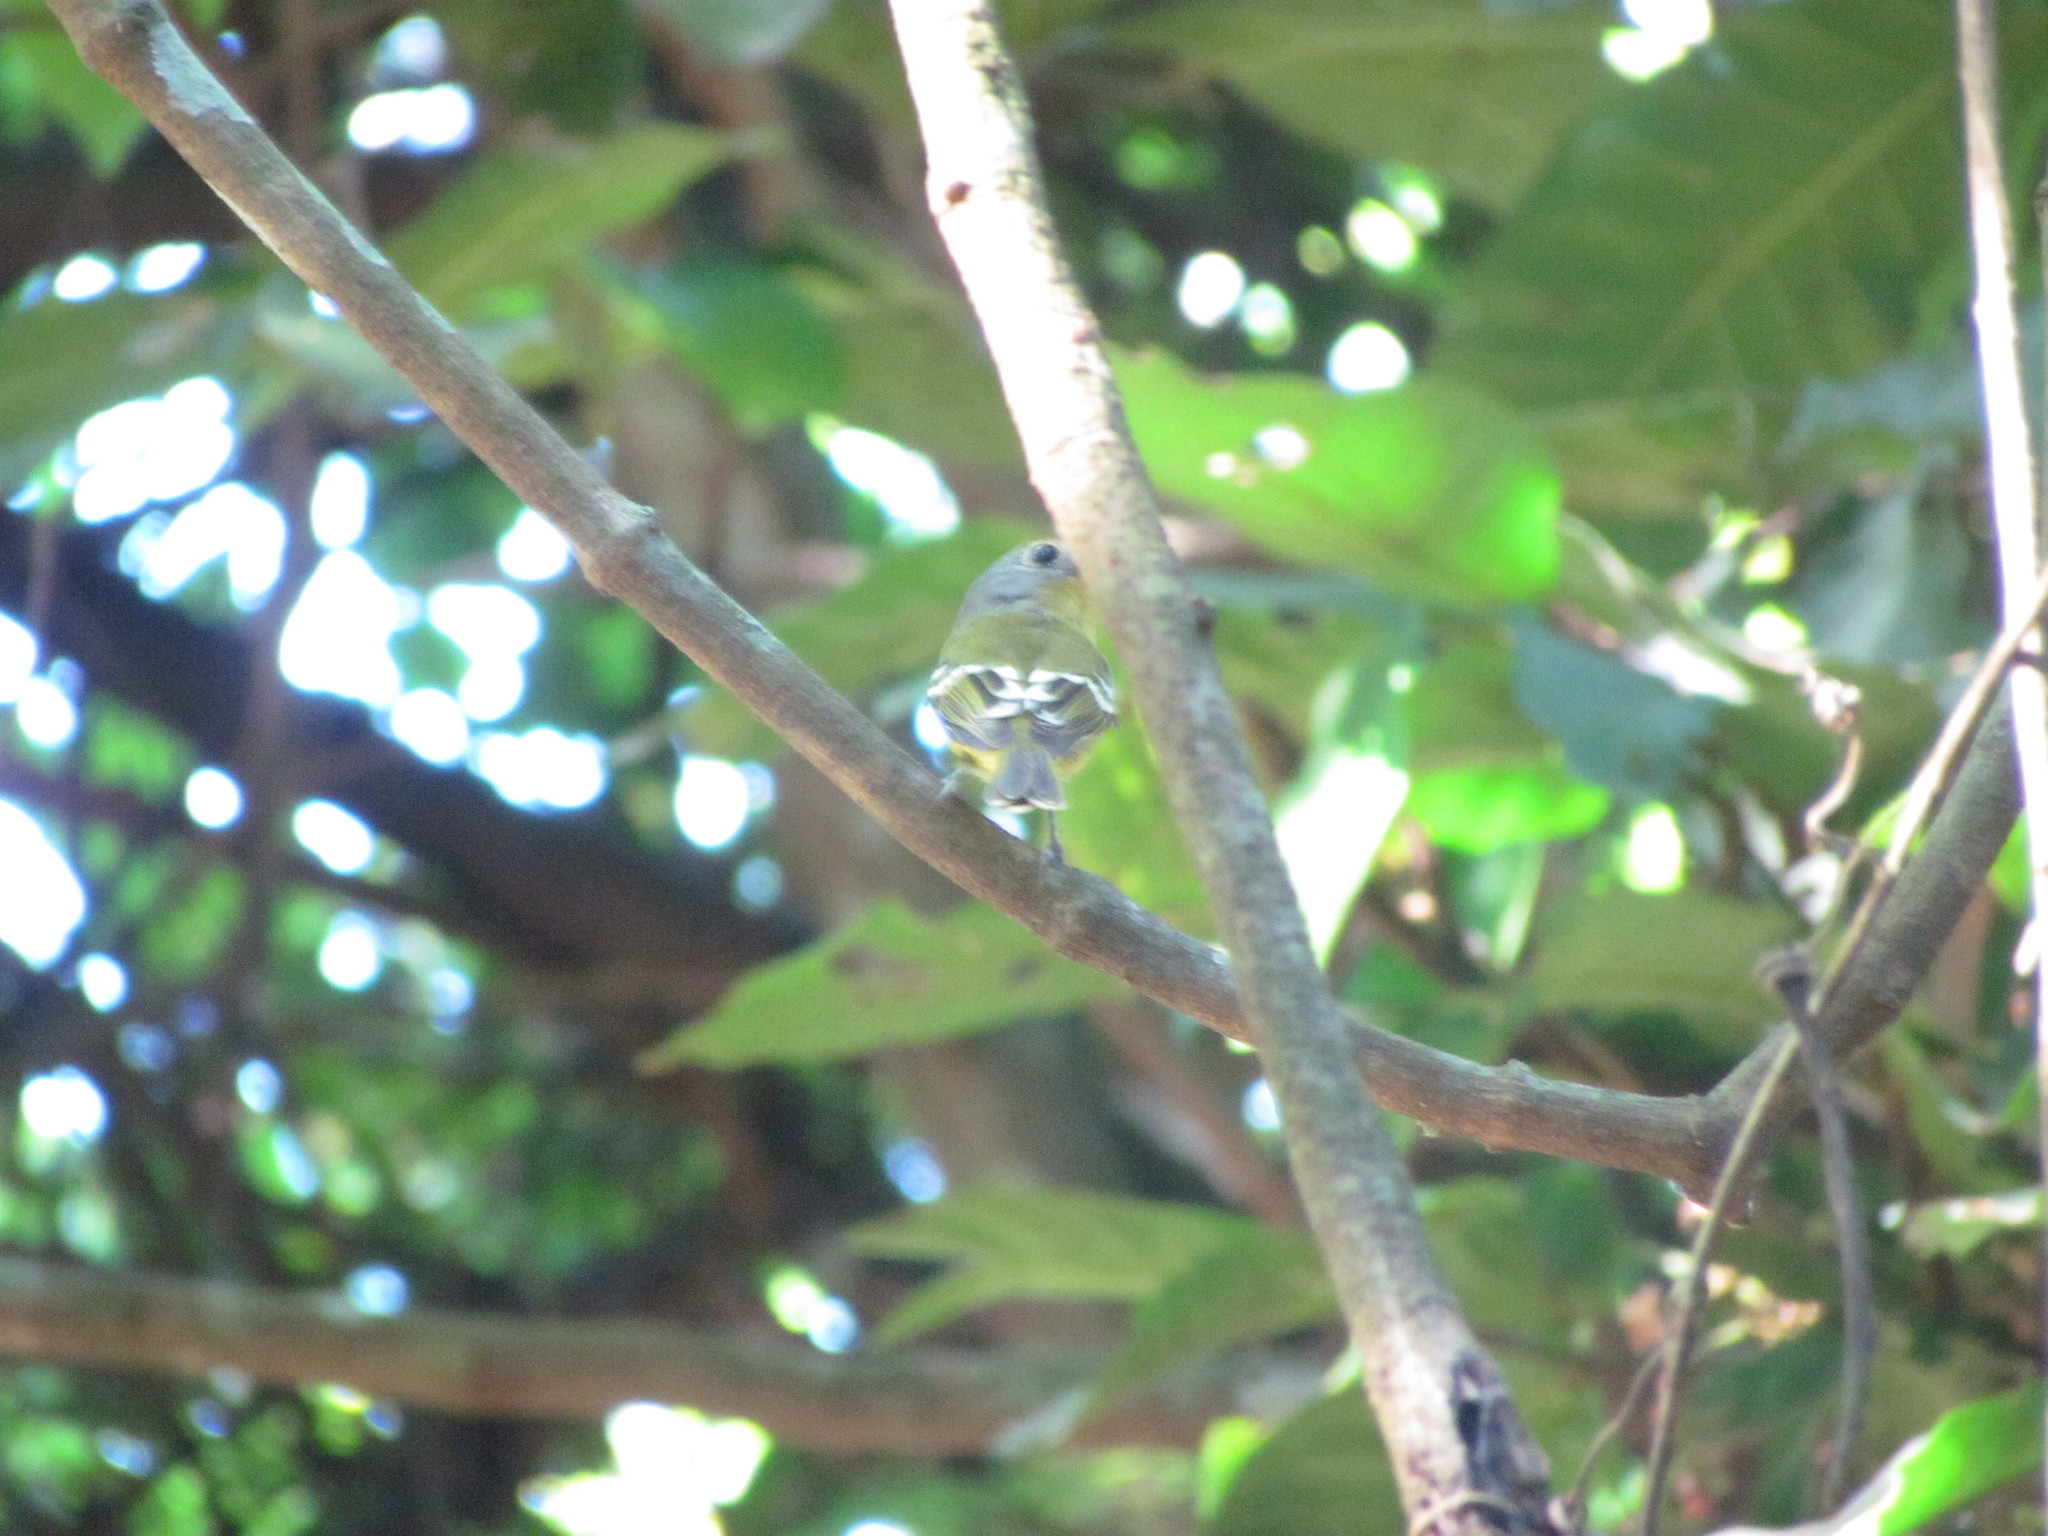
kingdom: Animalia
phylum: Chordata
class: Aves
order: Passeriformes
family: Cotingidae
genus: Piprites
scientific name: Piprites chloris
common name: Wing-barred piprites
